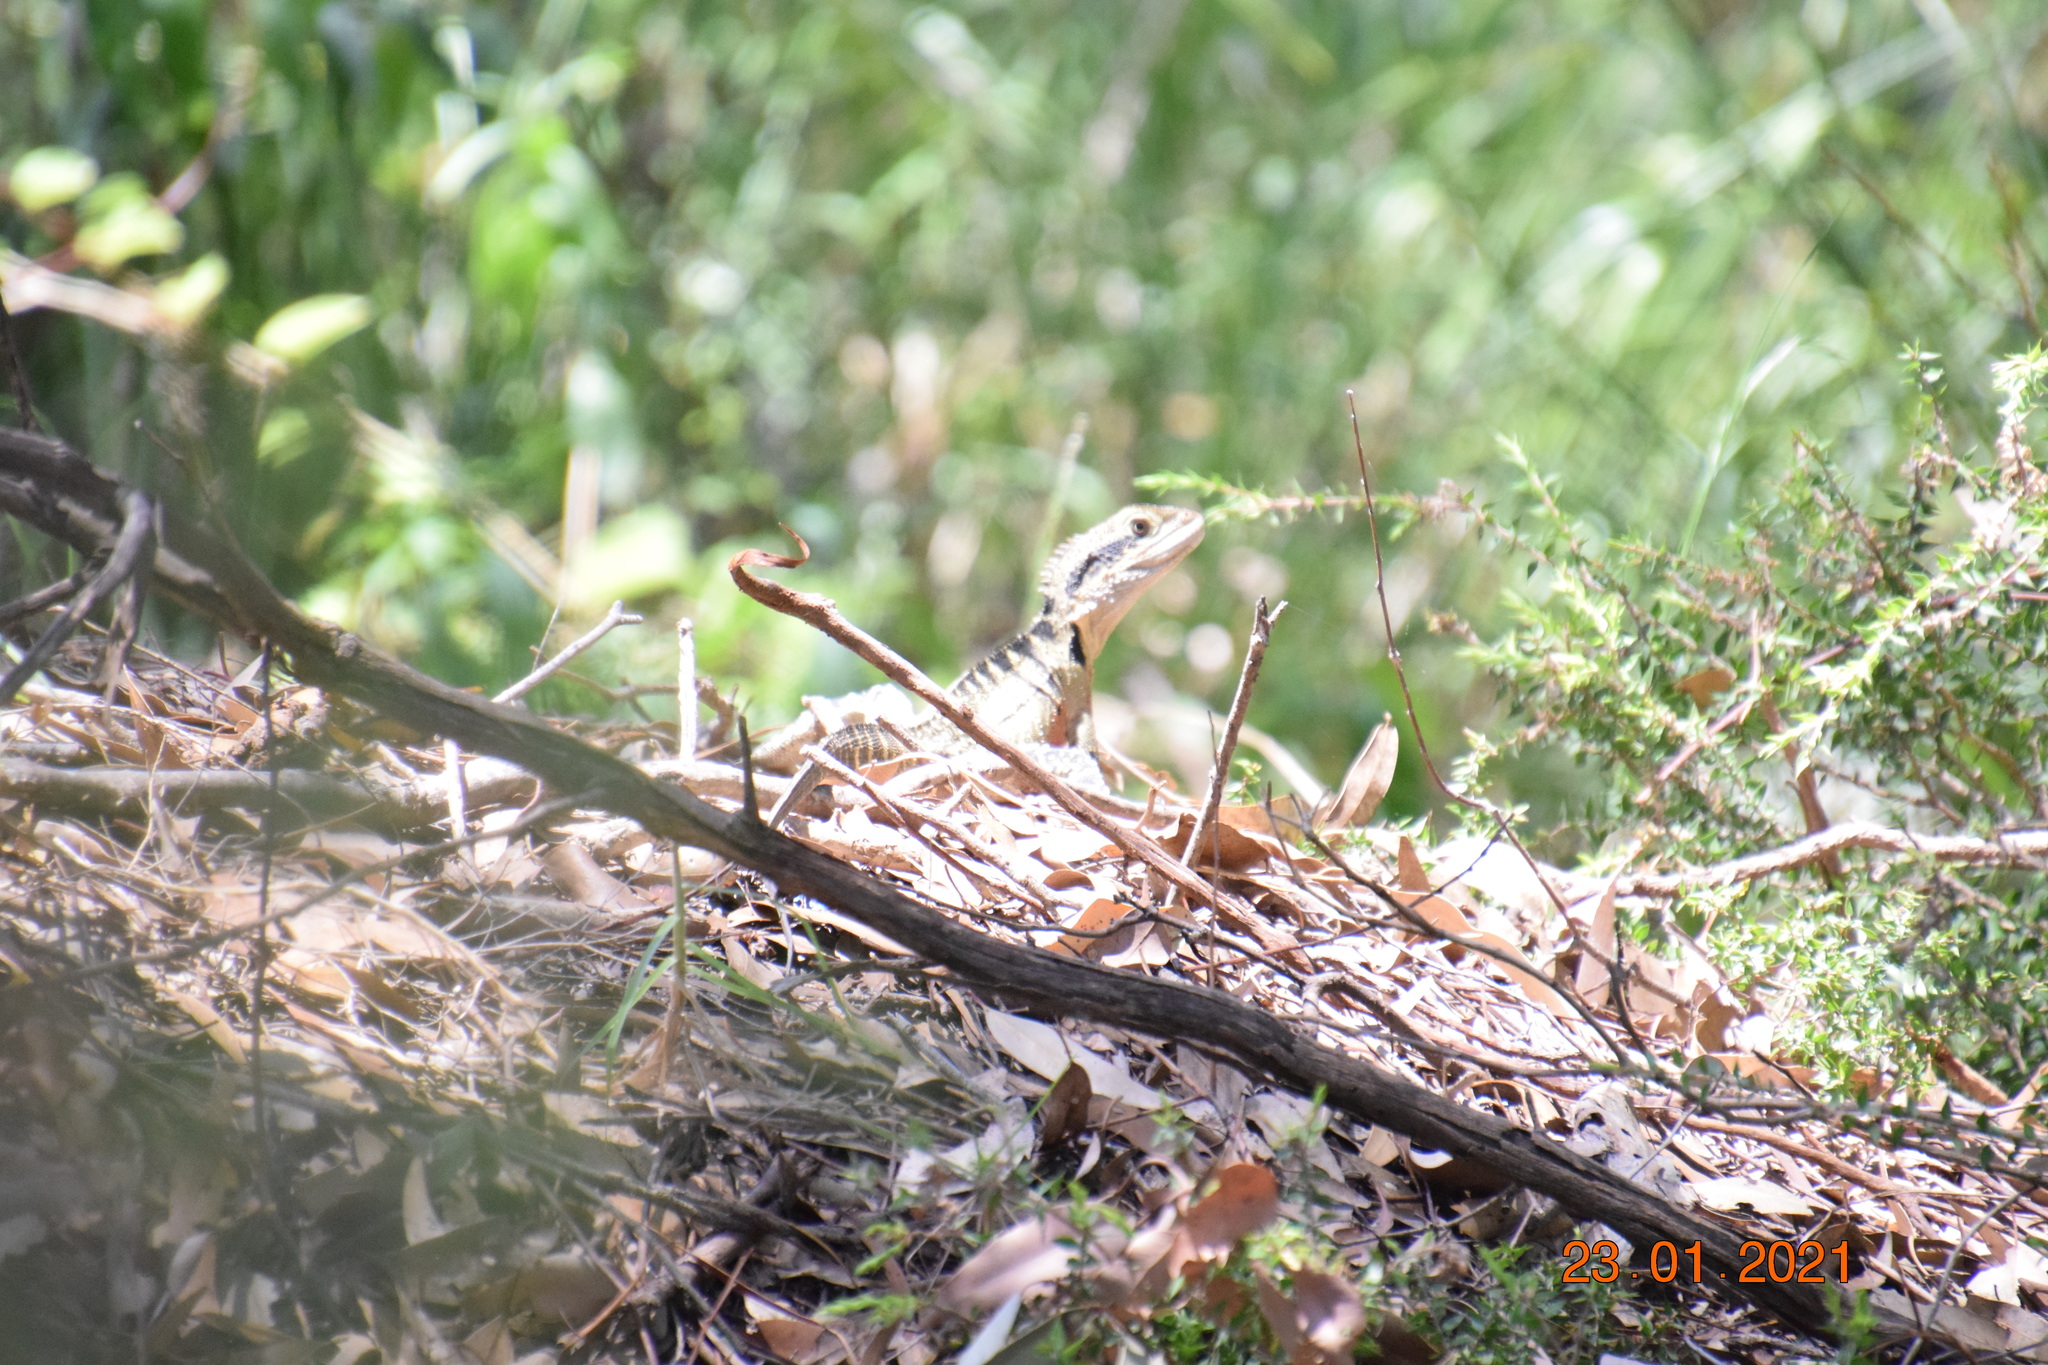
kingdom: Animalia
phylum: Chordata
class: Squamata
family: Agamidae
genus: Intellagama
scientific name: Intellagama lesueurii
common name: Eastern water dragon
